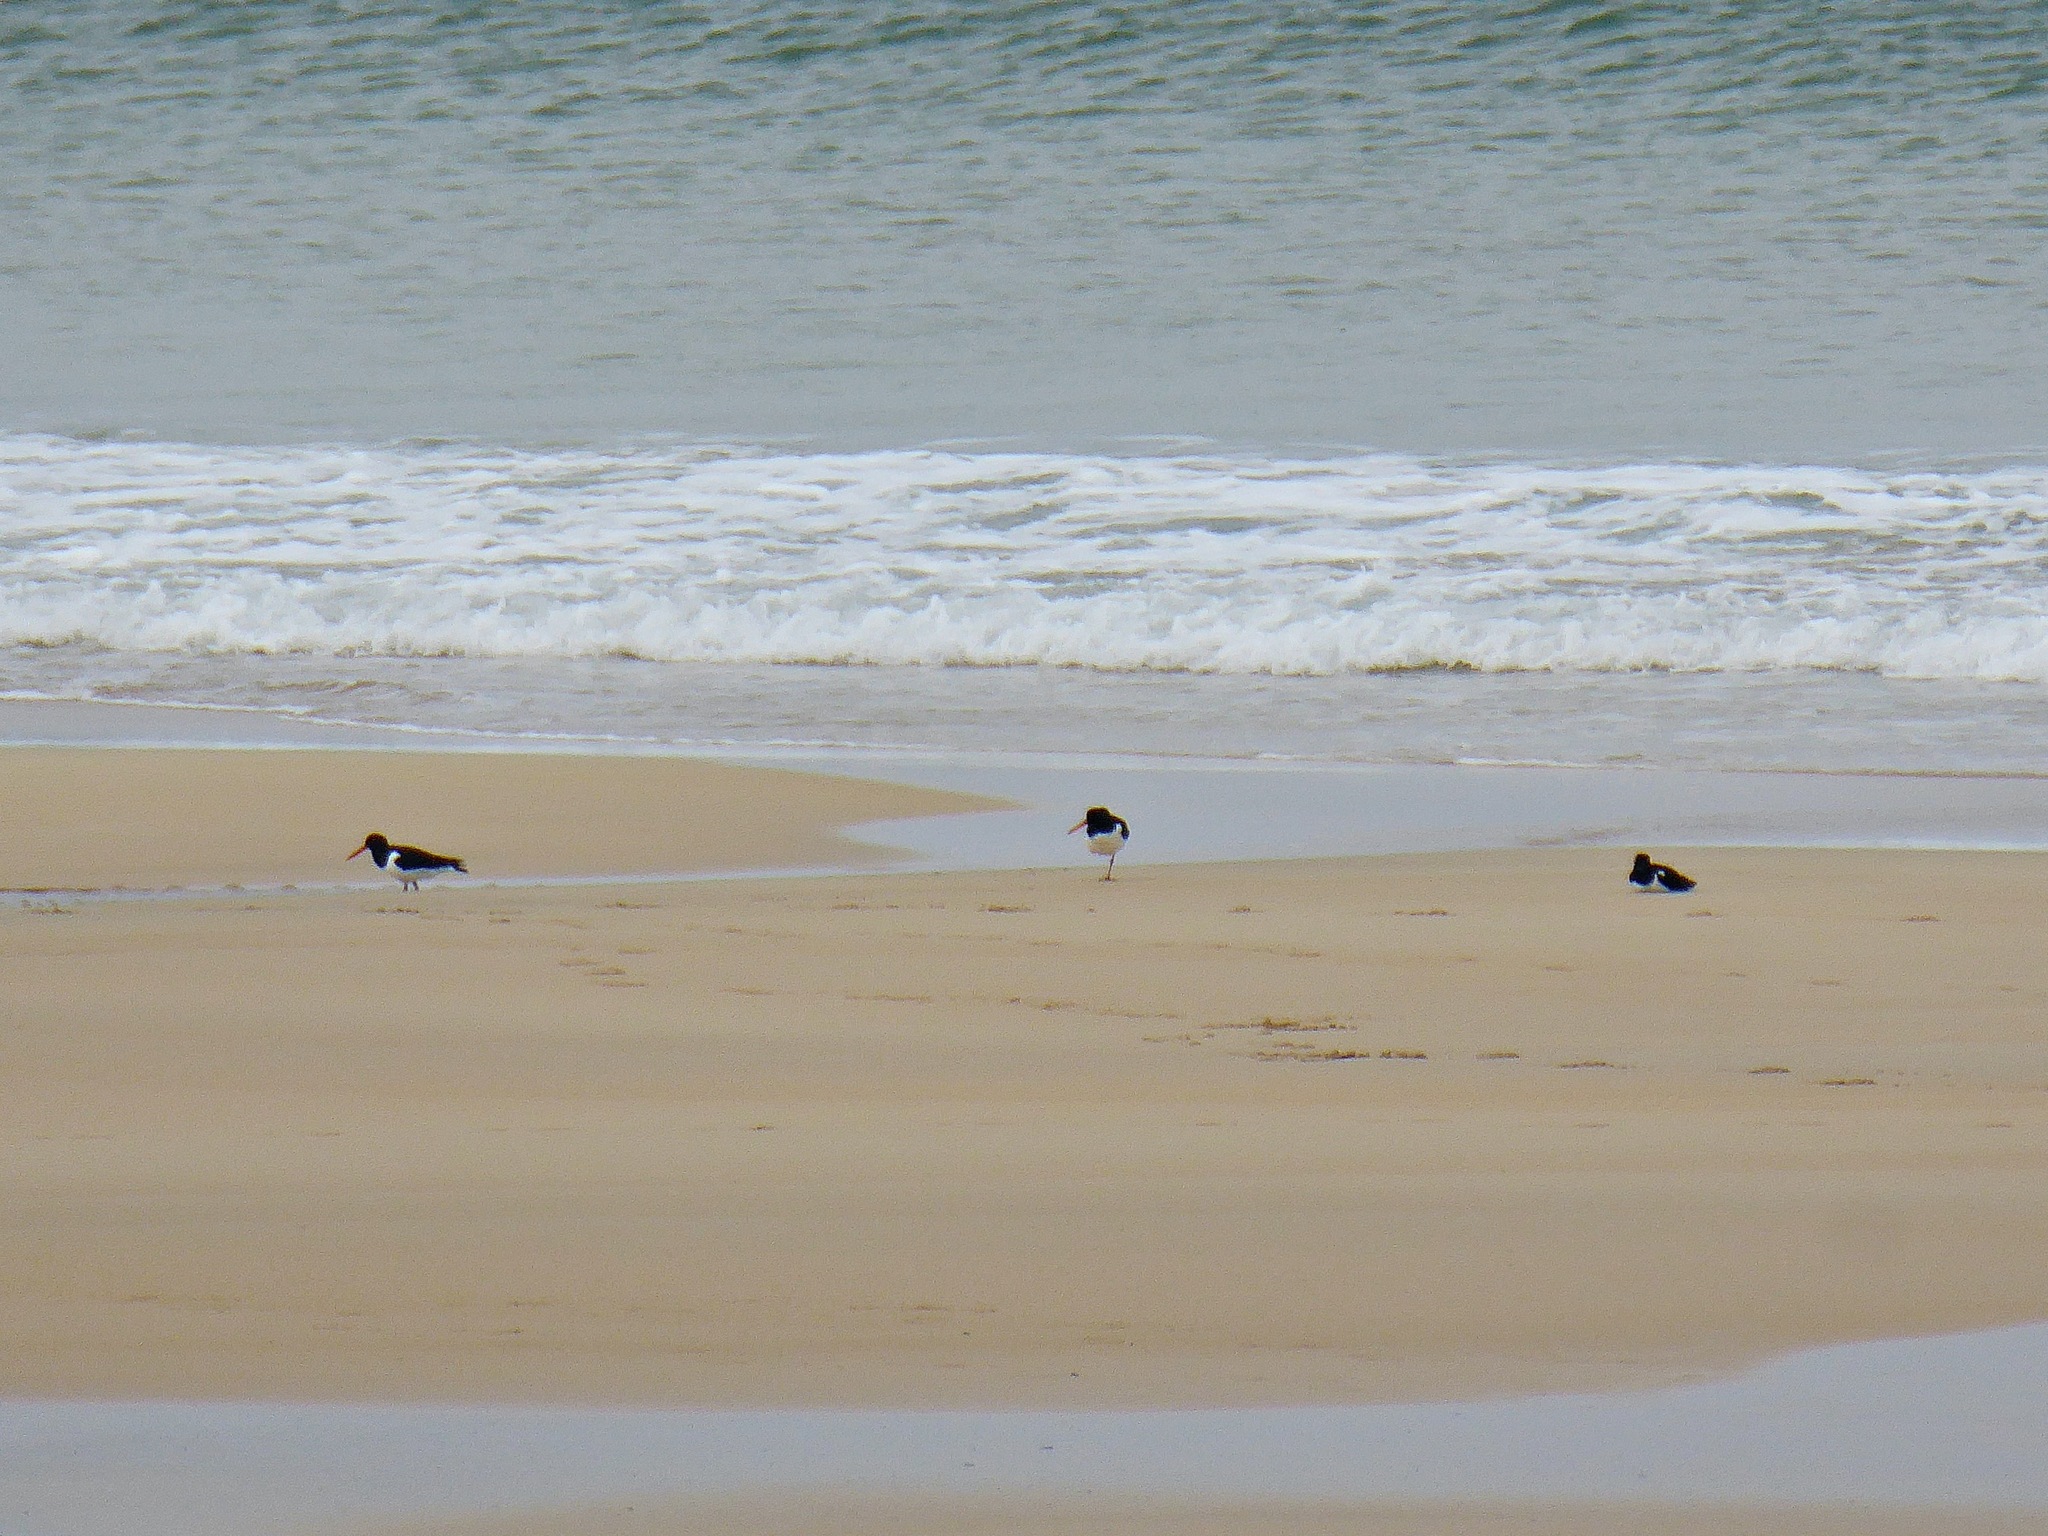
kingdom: Animalia
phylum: Chordata
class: Aves
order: Charadriiformes
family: Haematopodidae
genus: Haematopus
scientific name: Haematopus ostralegus
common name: Eurasian oystercatcher
